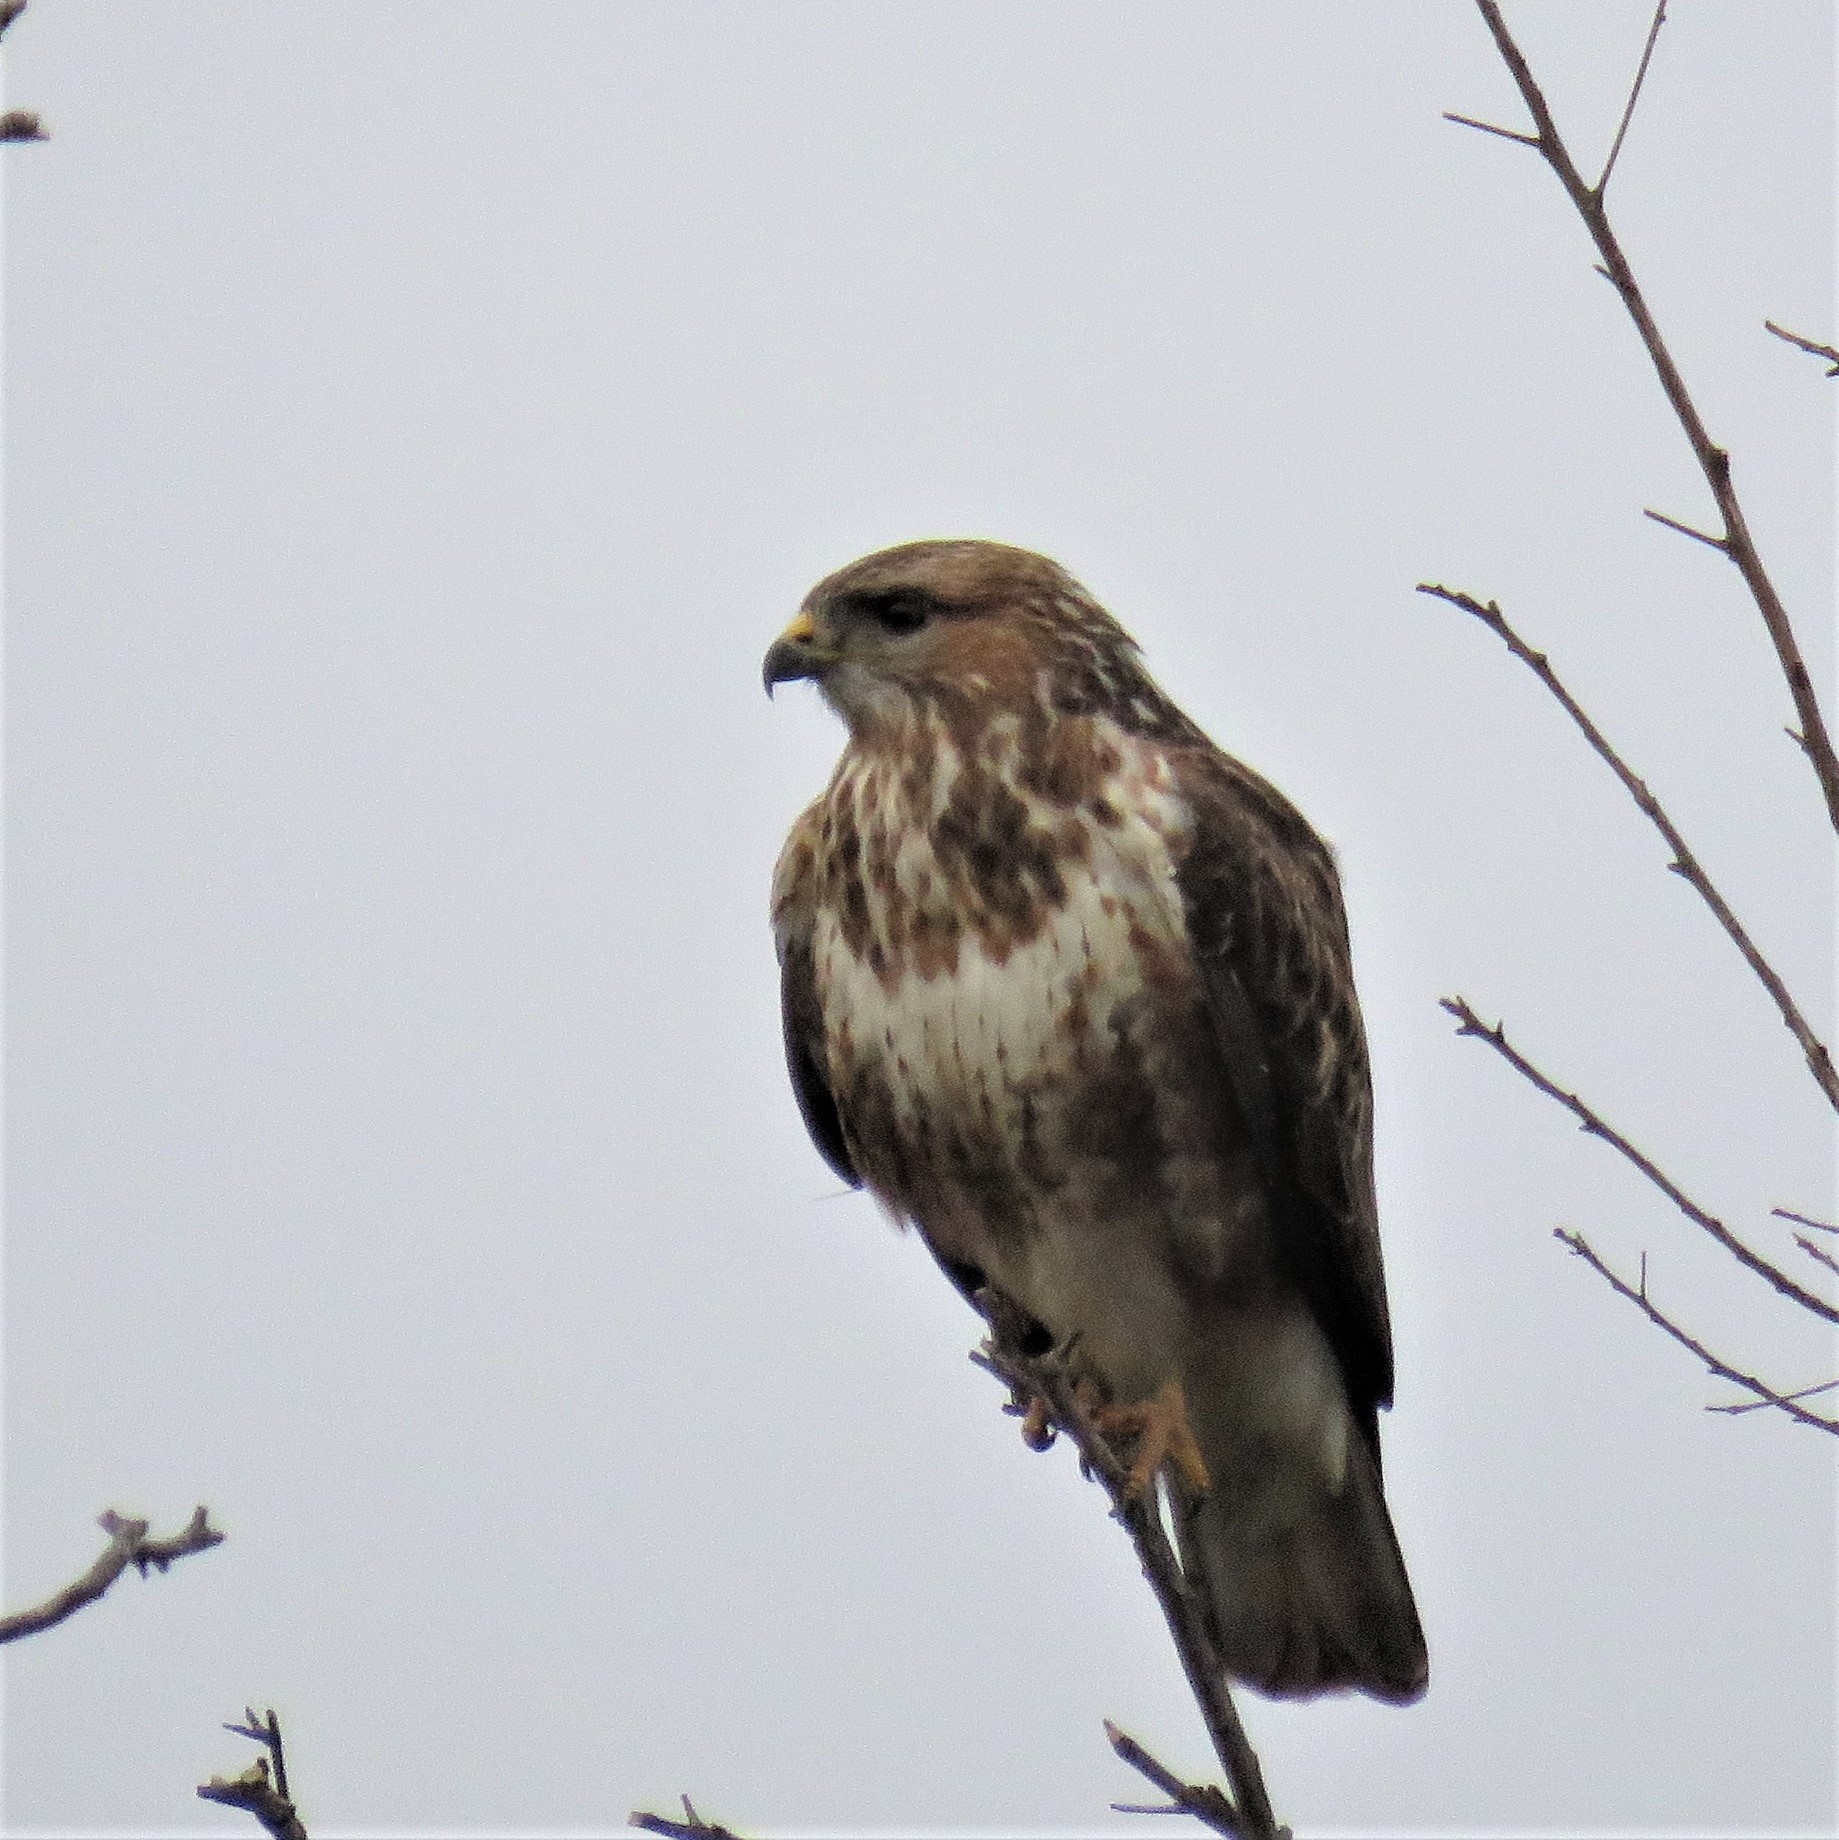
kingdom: Animalia
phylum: Chordata
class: Aves
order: Accipitriformes
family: Accipitridae
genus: Buteo
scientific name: Buteo trizonatus
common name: Forest buzzard
